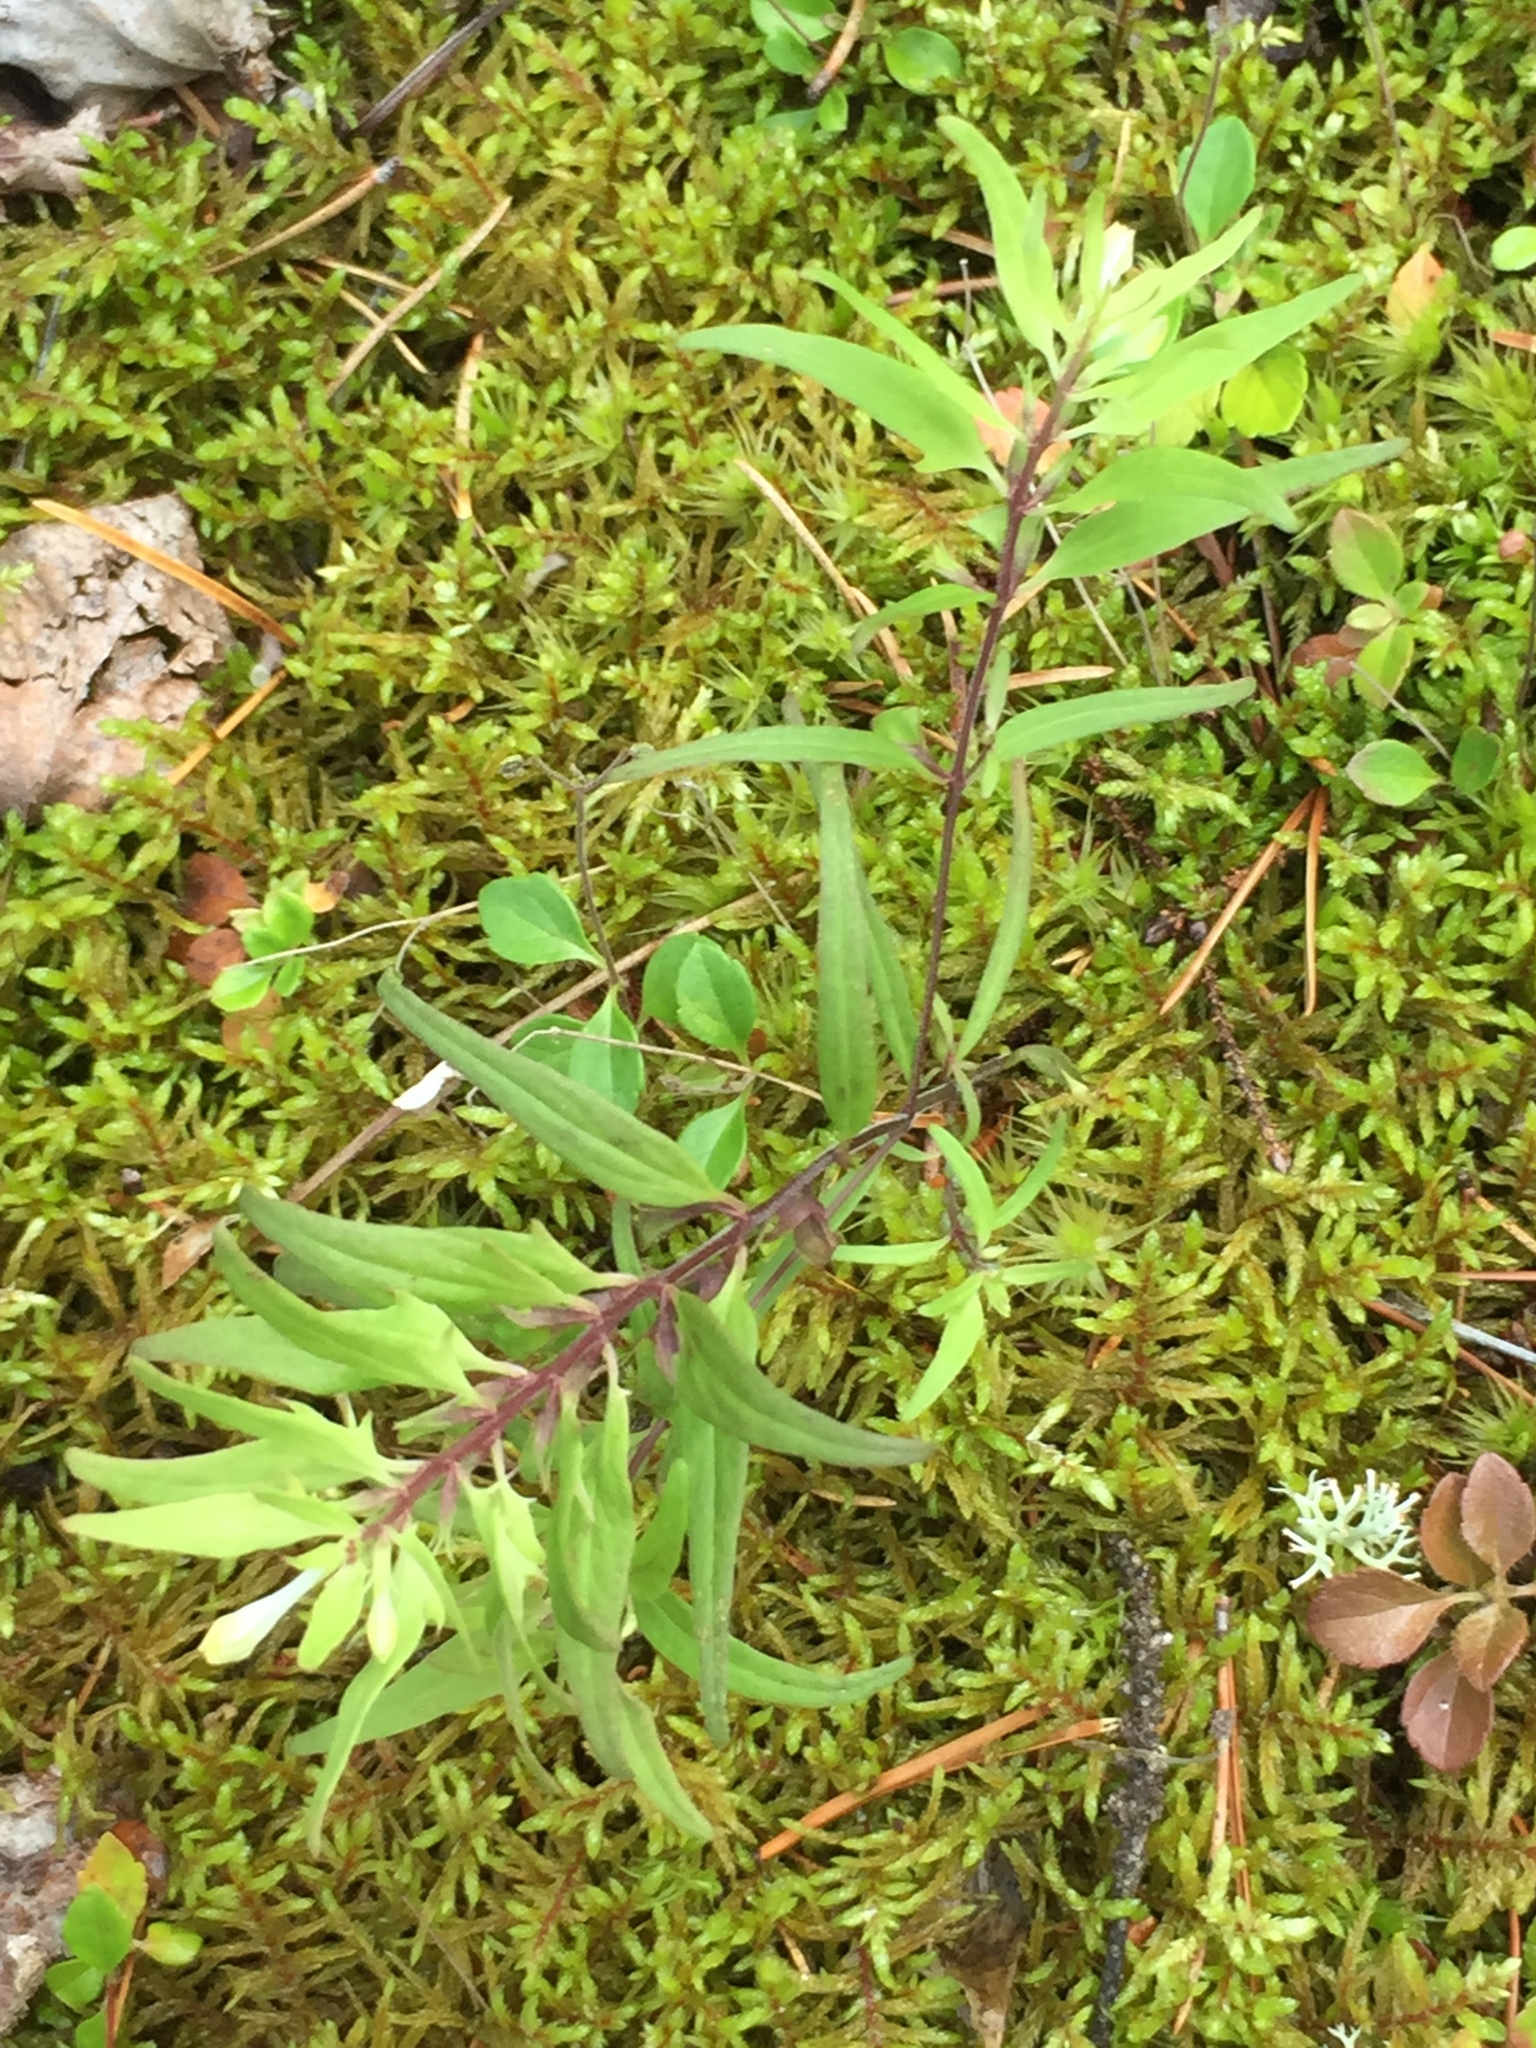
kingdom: Plantae
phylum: Tracheophyta
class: Magnoliopsida
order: Lamiales
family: Orobanchaceae
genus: Melampyrum
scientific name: Melampyrum lineare
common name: American cow-wheat
